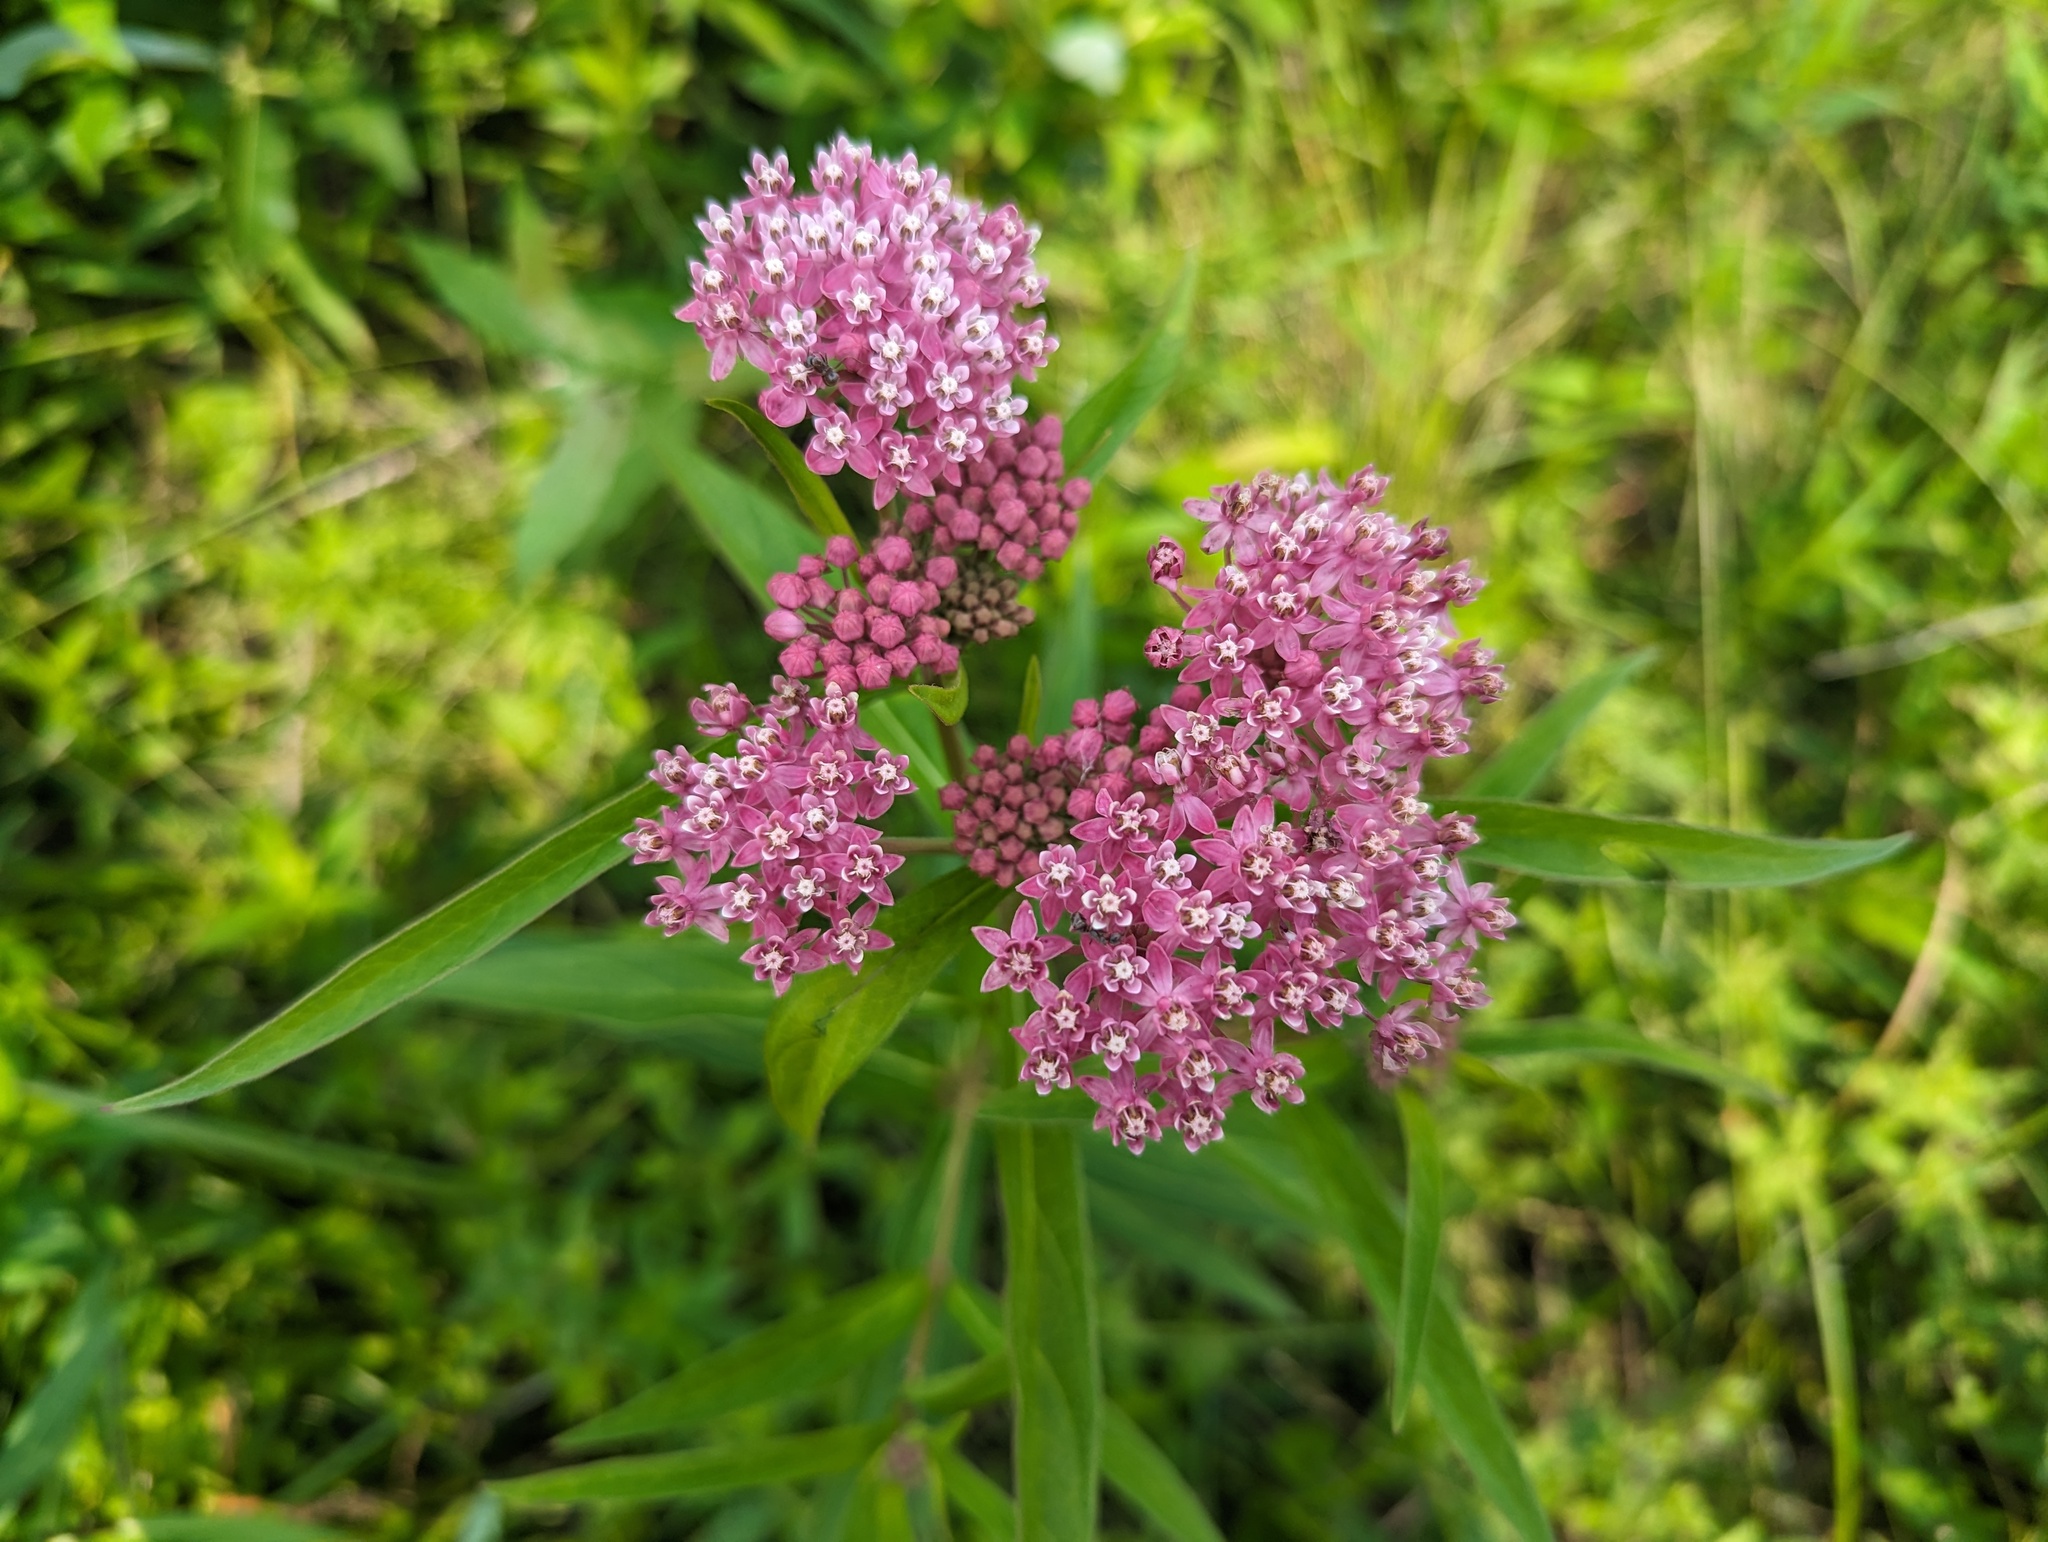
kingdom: Plantae
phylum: Tracheophyta
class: Magnoliopsida
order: Gentianales
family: Apocynaceae
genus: Asclepias
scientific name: Asclepias incarnata
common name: Swamp milkweed
